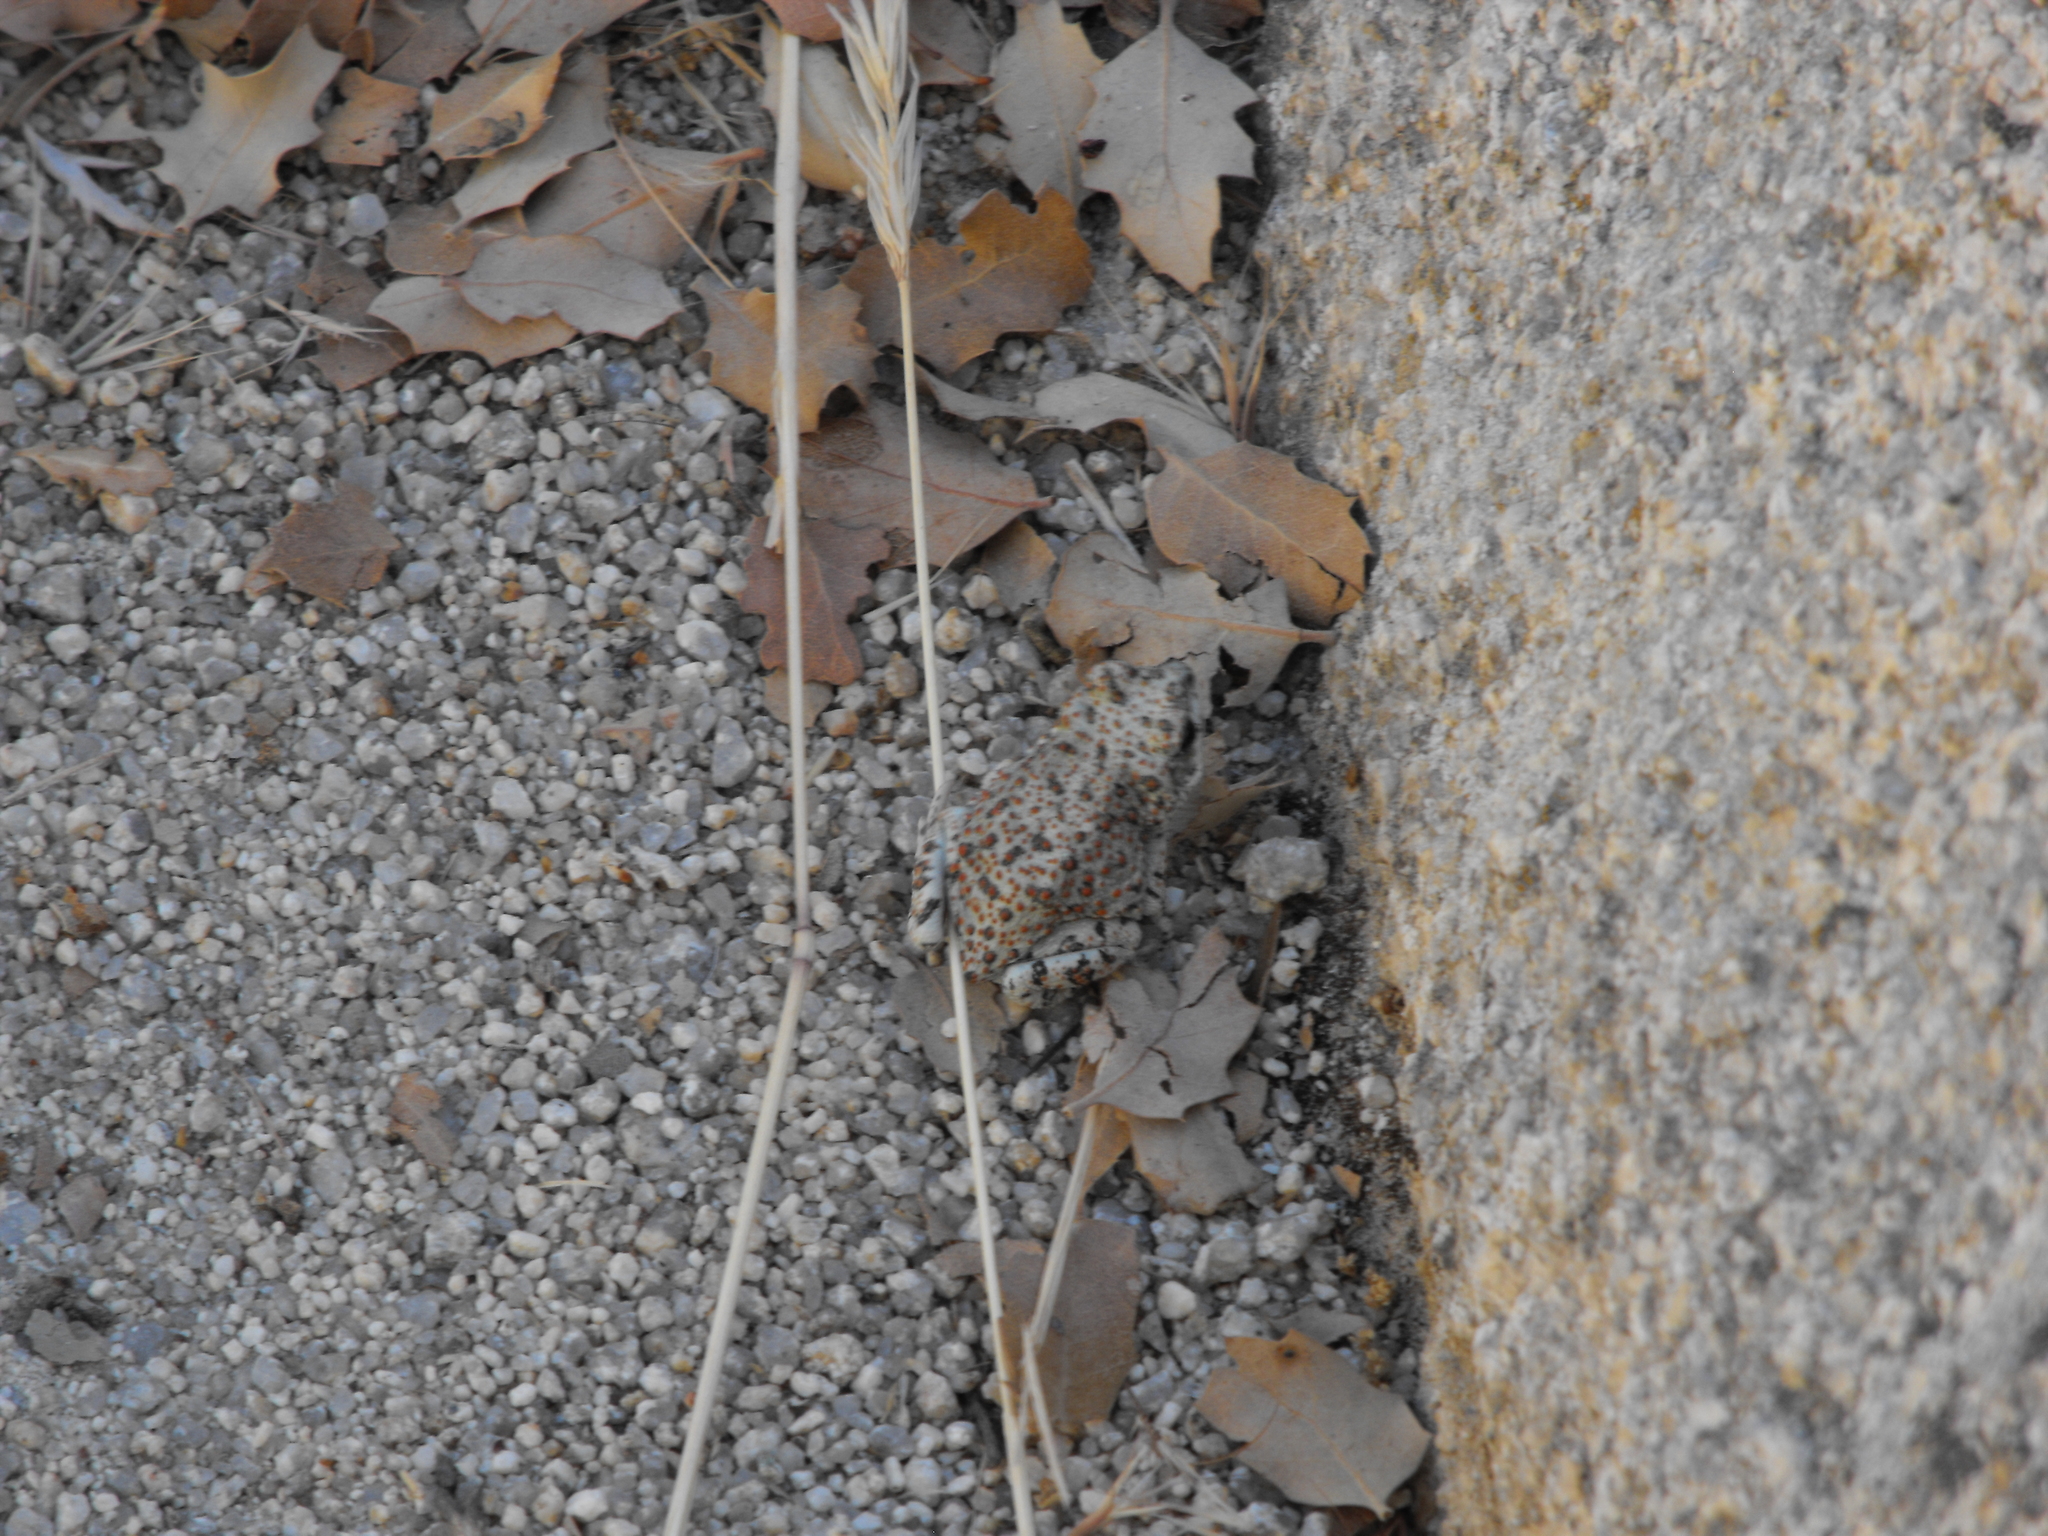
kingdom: Animalia
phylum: Chordata
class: Amphibia
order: Anura
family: Bufonidae
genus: Anaxyrus
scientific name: Anaxyrus punctatus
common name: Red-spotted toad
